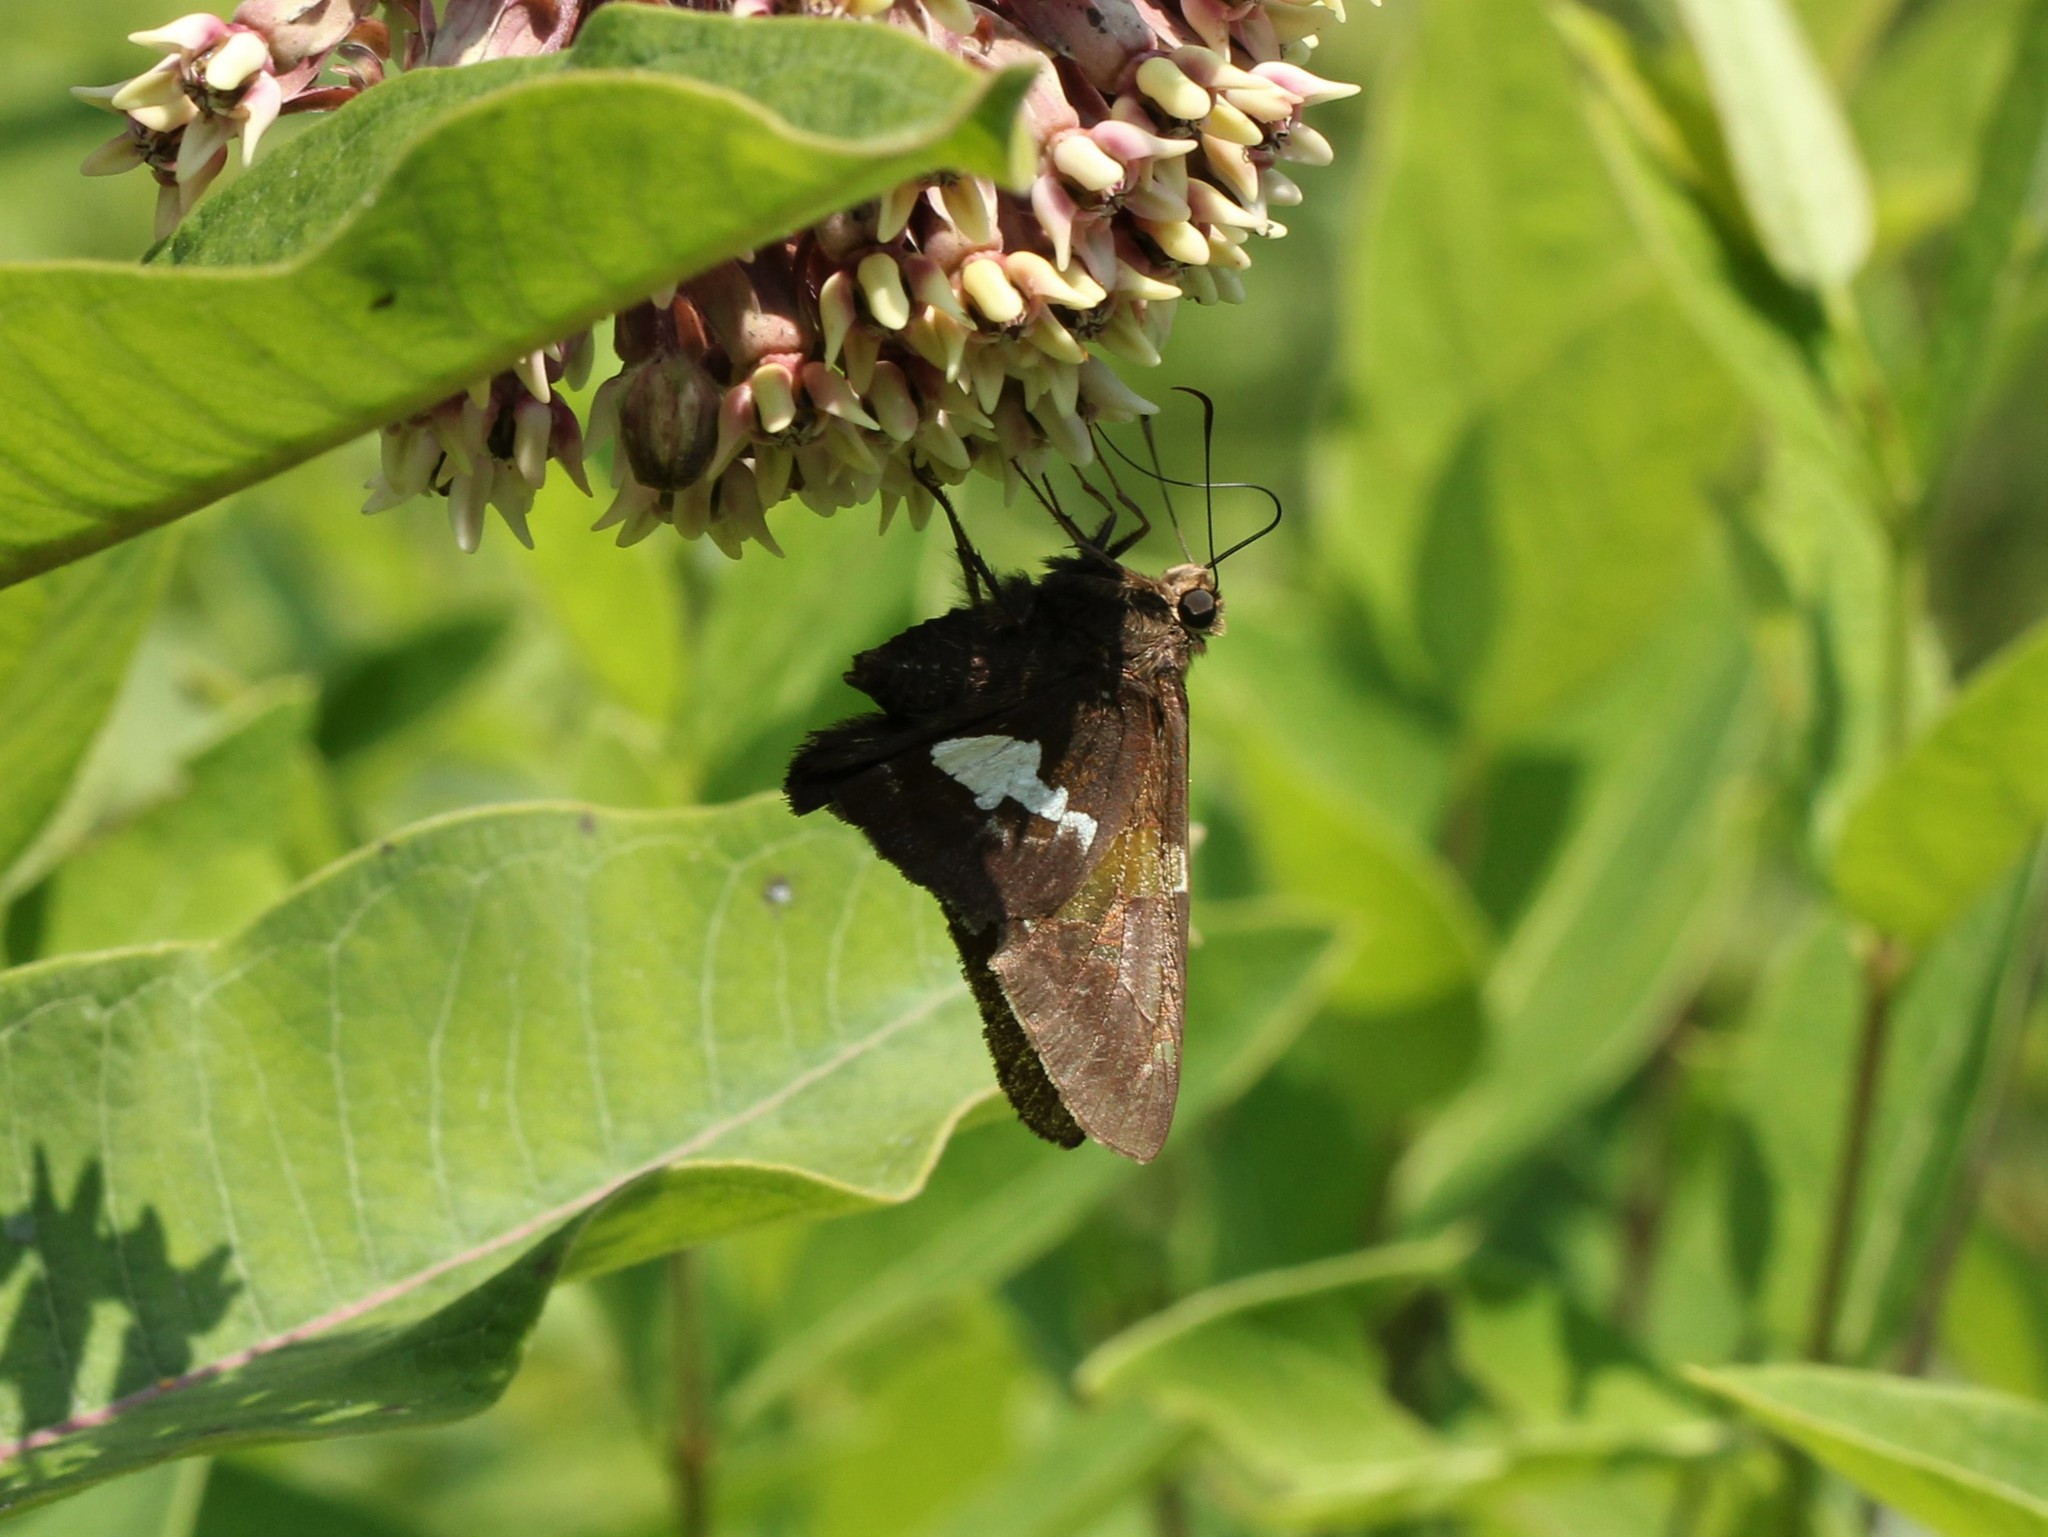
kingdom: Animalia
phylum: Arthropoda
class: Insecta
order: Lepidoptera
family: Hesperiidae
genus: Epargyreus
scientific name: Epargyreus clarus
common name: Silver-spotted skipper
